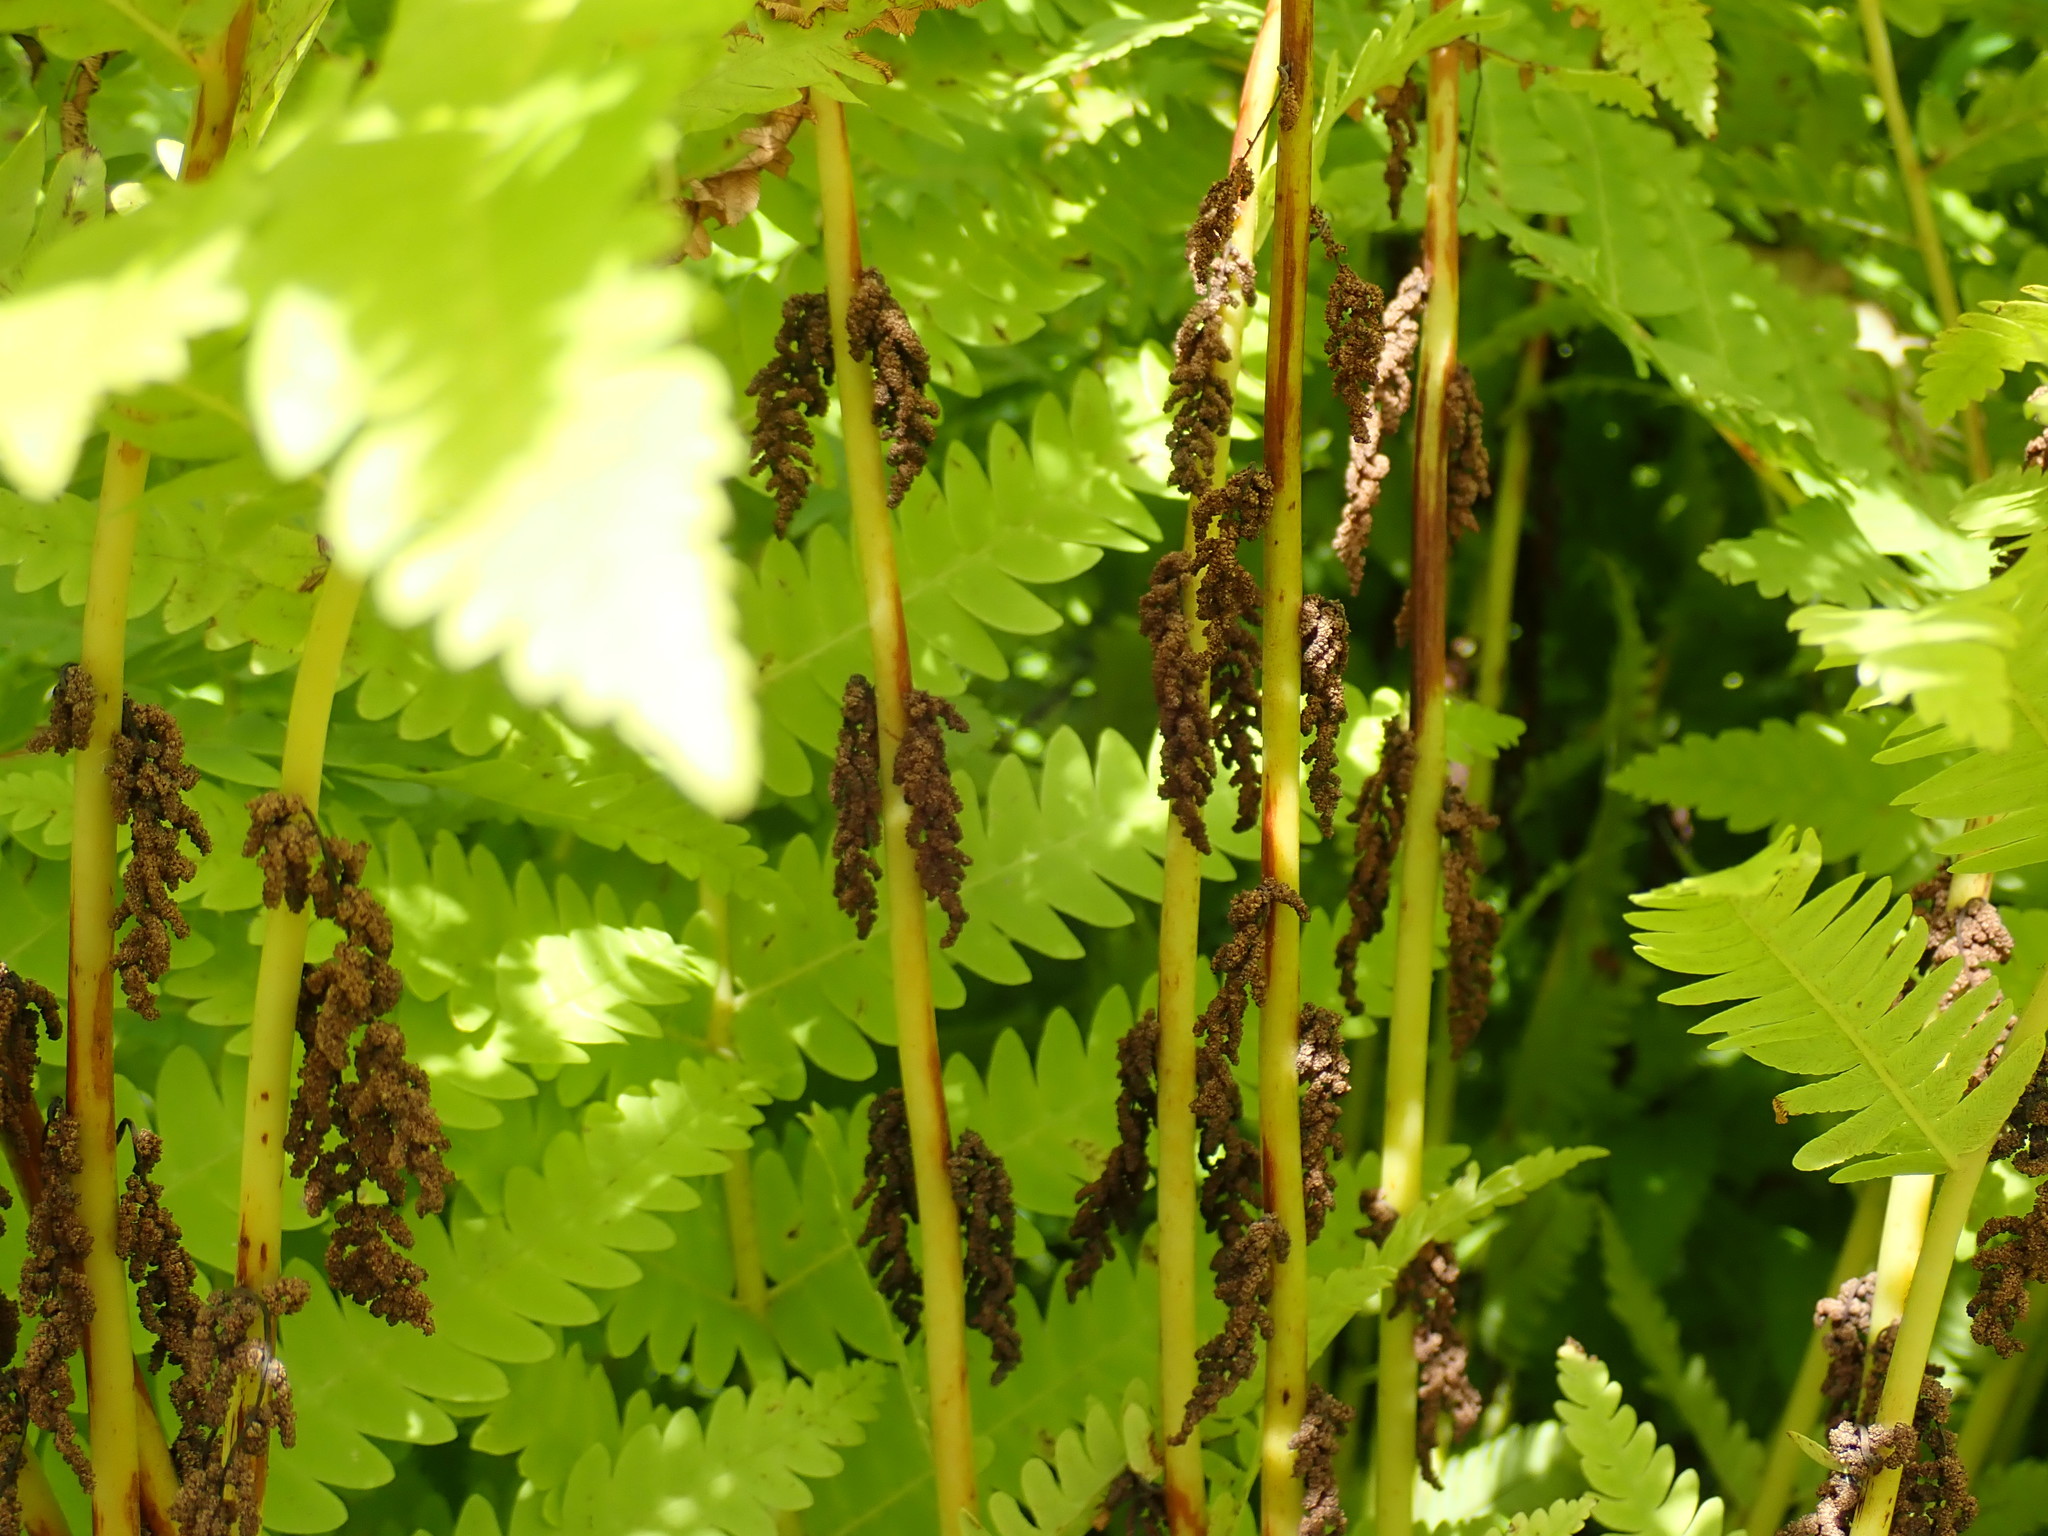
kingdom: Plantae
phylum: Tracheophyta
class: Polypodiopsida
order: Osmundales
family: Osmundaceae
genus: Claytosmunda
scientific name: Claytosmunda claytoniana
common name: Clayton's fern
